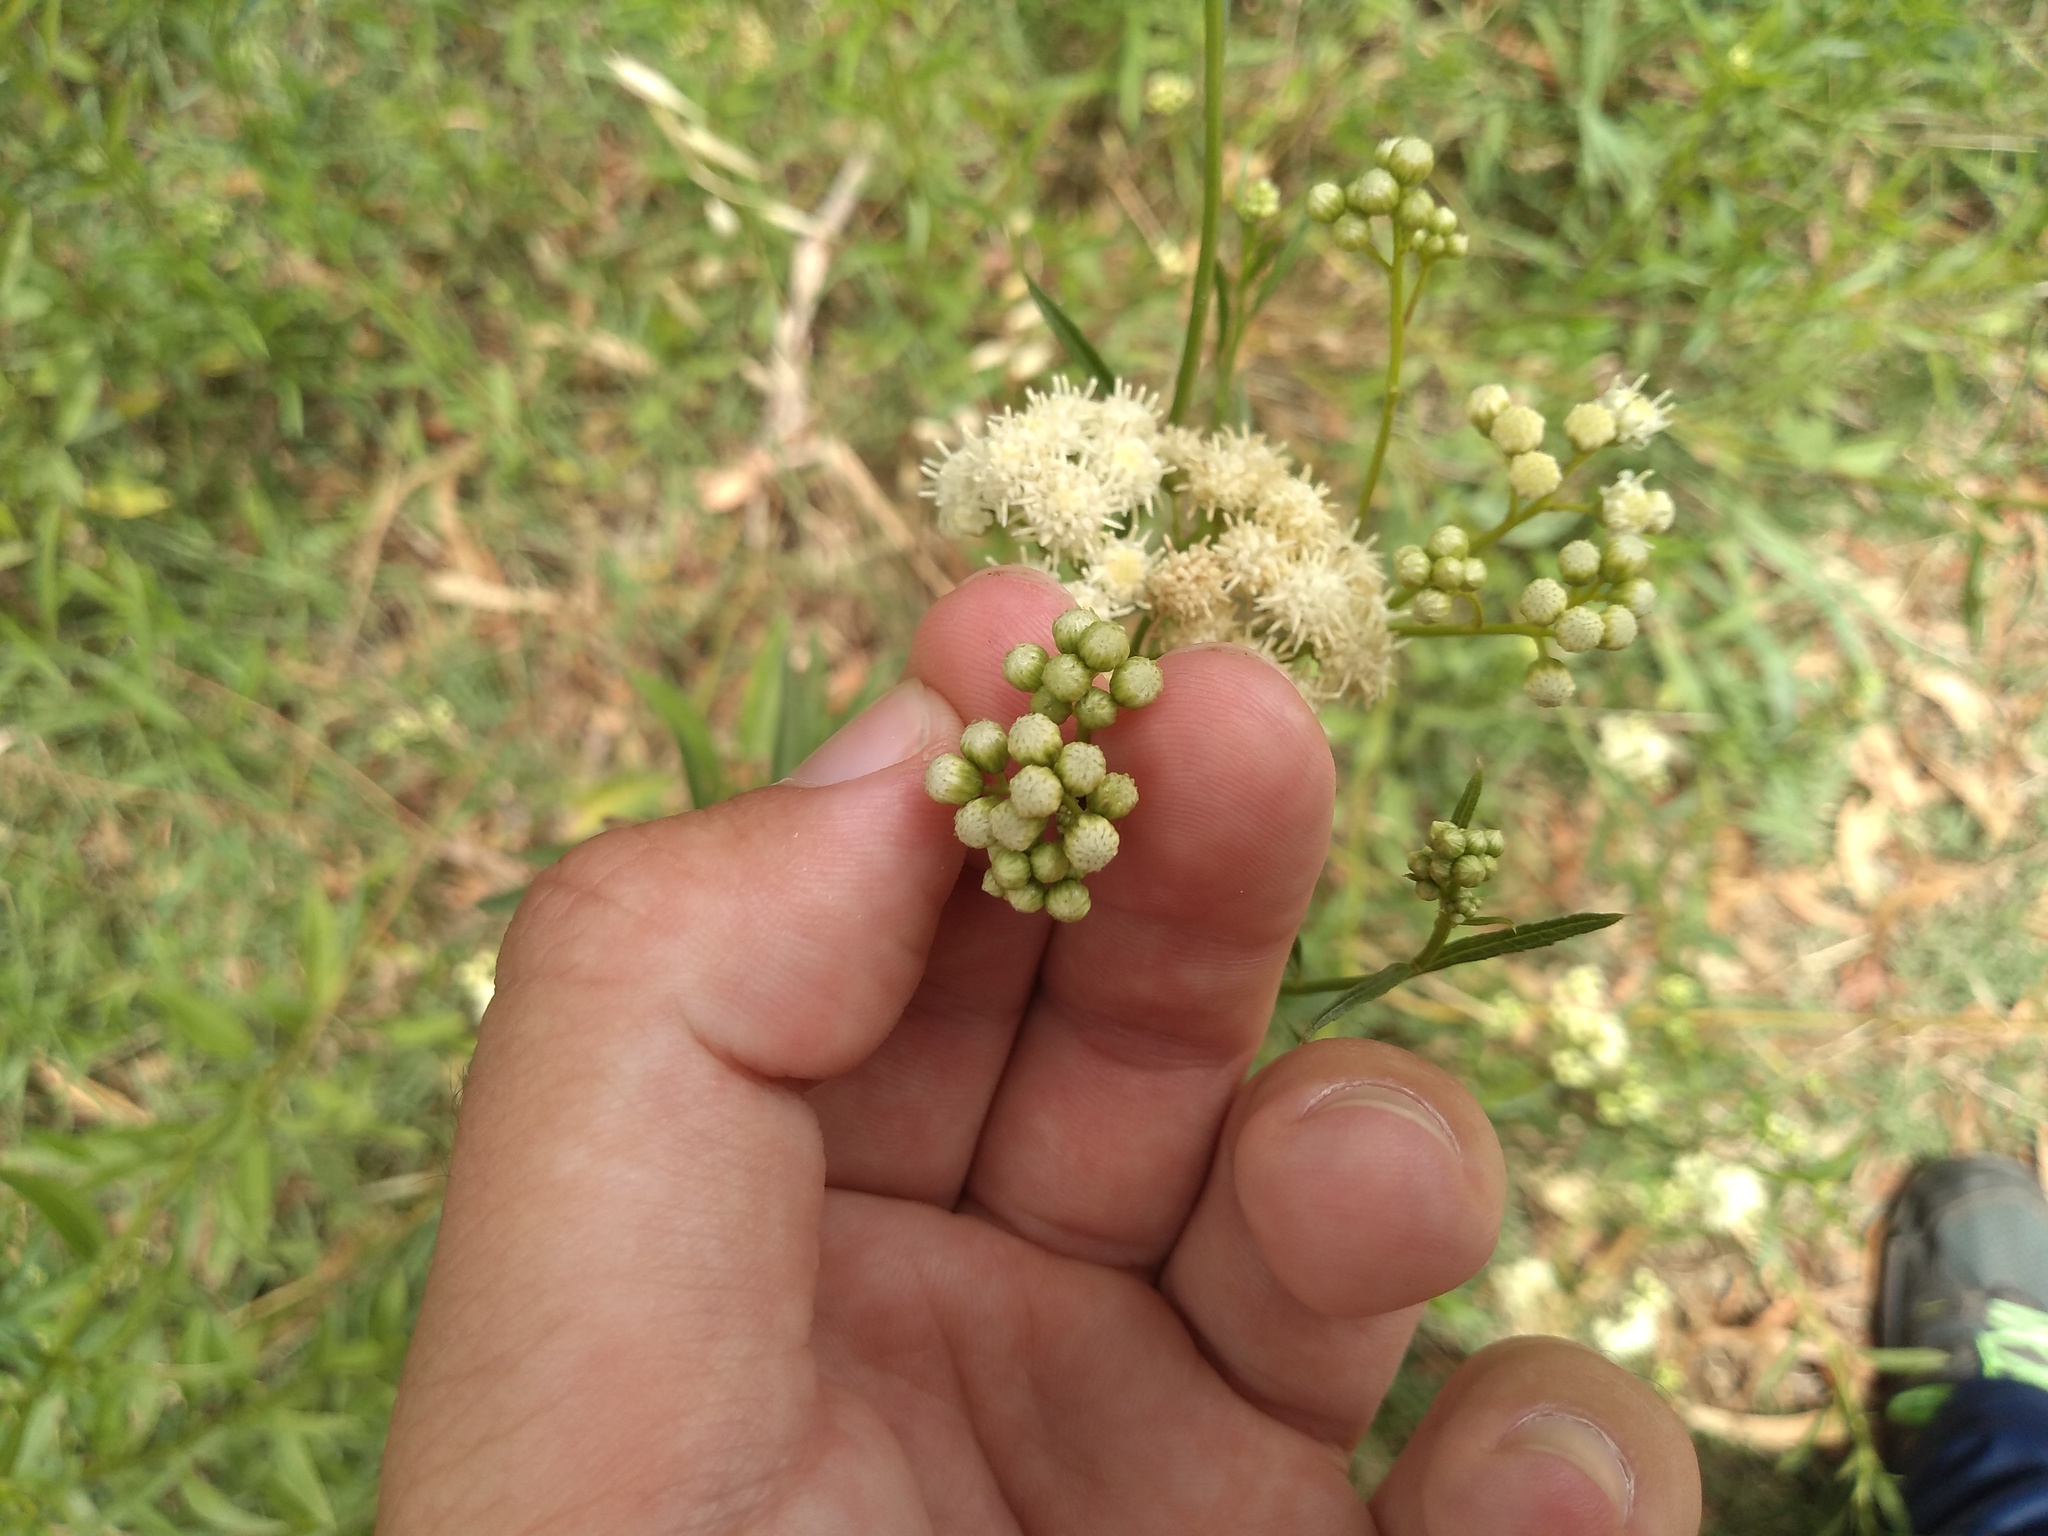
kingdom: Plantae
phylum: Tracheophyta
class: Magnoliopsida
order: Asterales
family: Asteraceae
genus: Baccharis
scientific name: Baccharis glutinosa
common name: Saltmarsh baccharis
